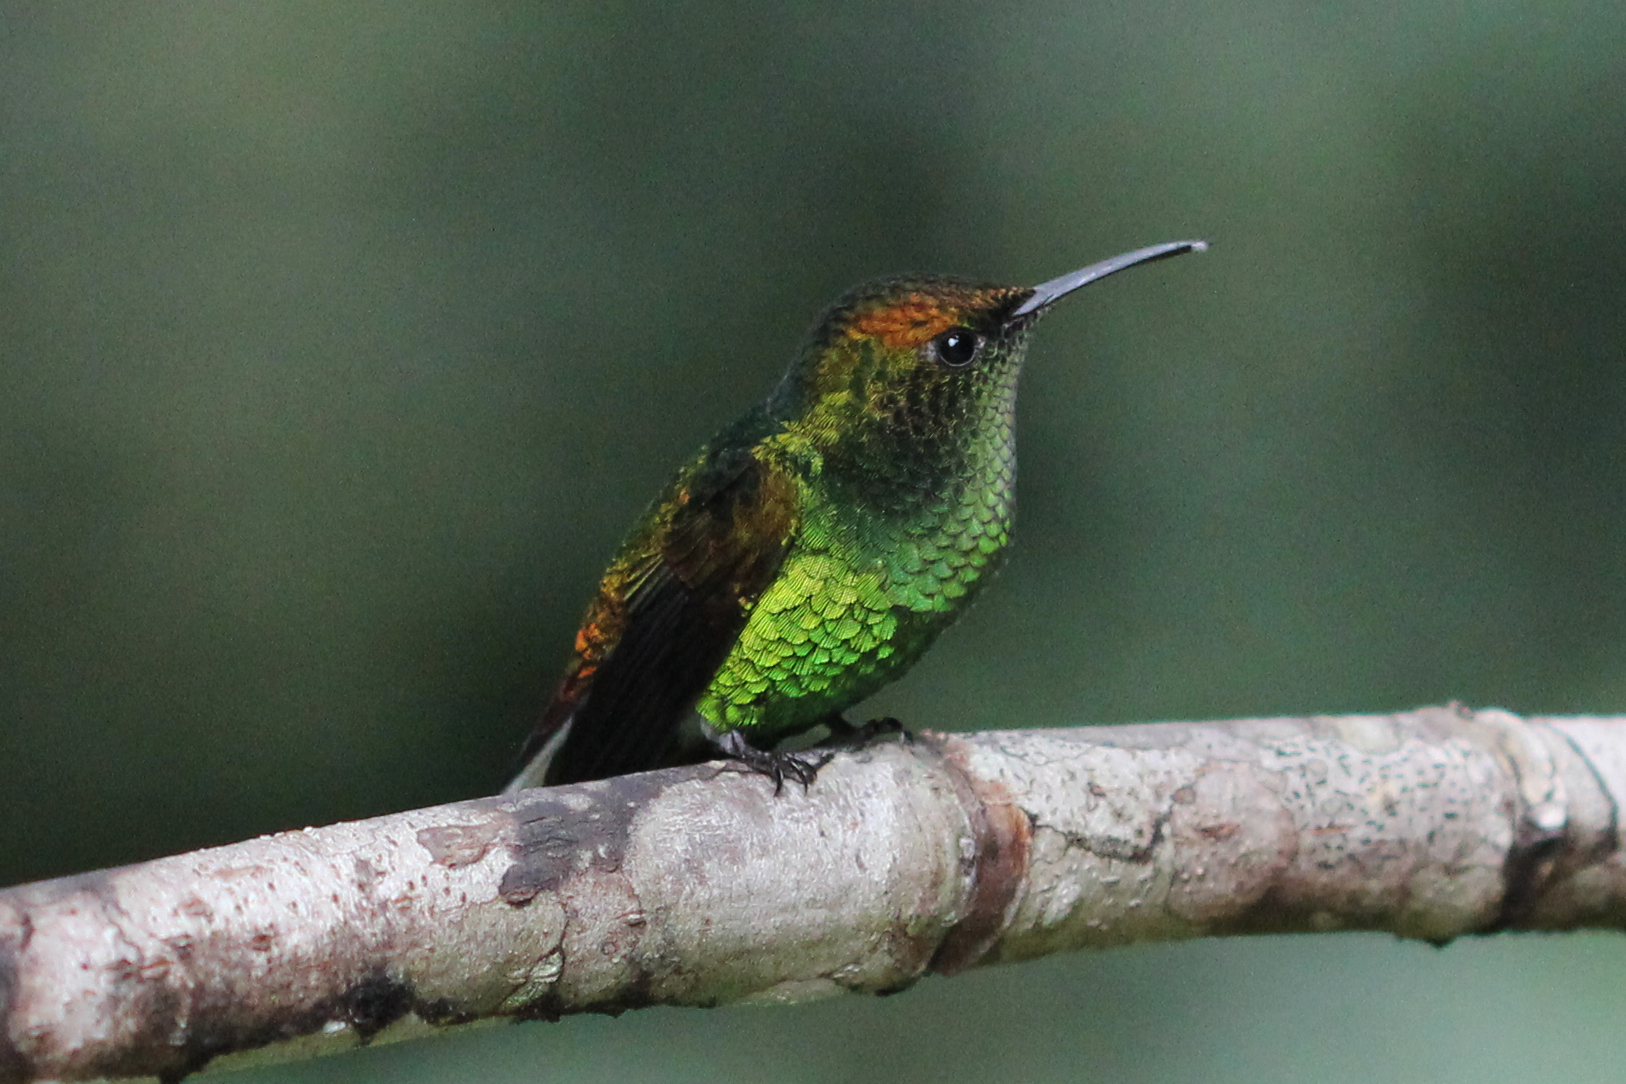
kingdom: Animalia
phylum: Chordata
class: Aves
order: Apodiformes
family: Trochilidae
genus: Microchera
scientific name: Microchera cupreiceps
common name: Coppery-headed emerald
